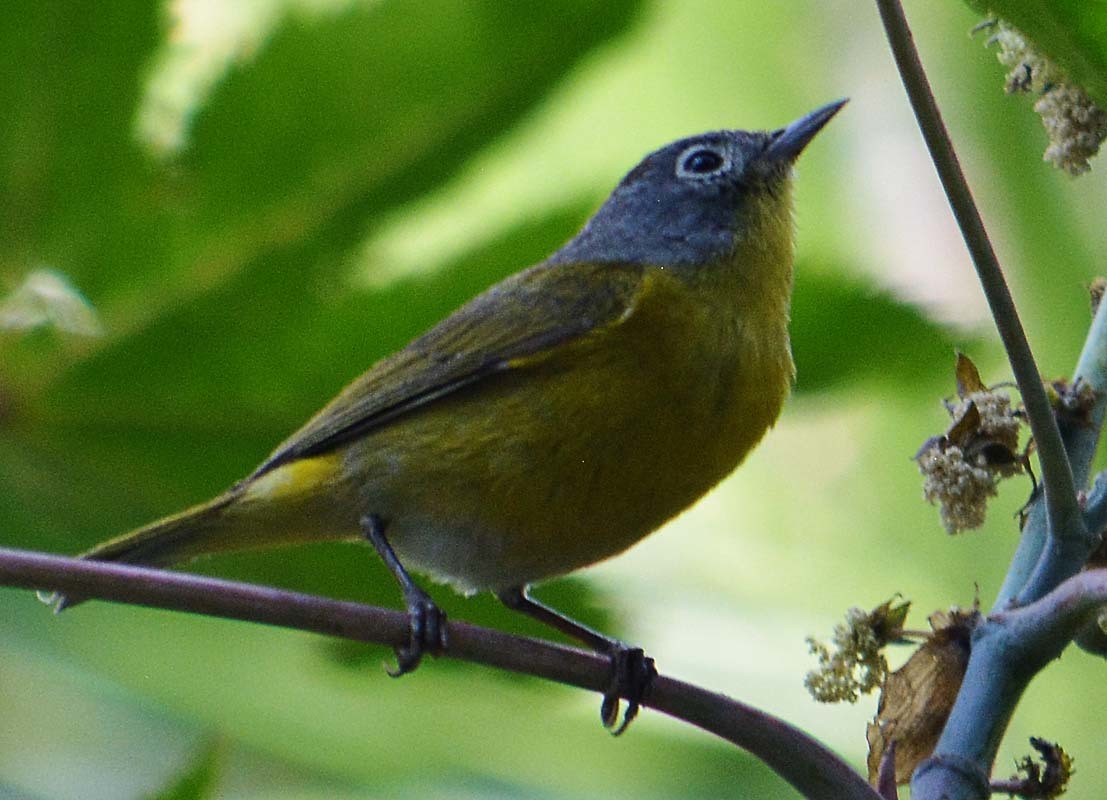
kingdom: Animalia
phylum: Chordata
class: Aves
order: Passeriformes
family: Parulidae
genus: Leiothlypis
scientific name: Leiothlypis ruficapilla
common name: Nashville warbler
